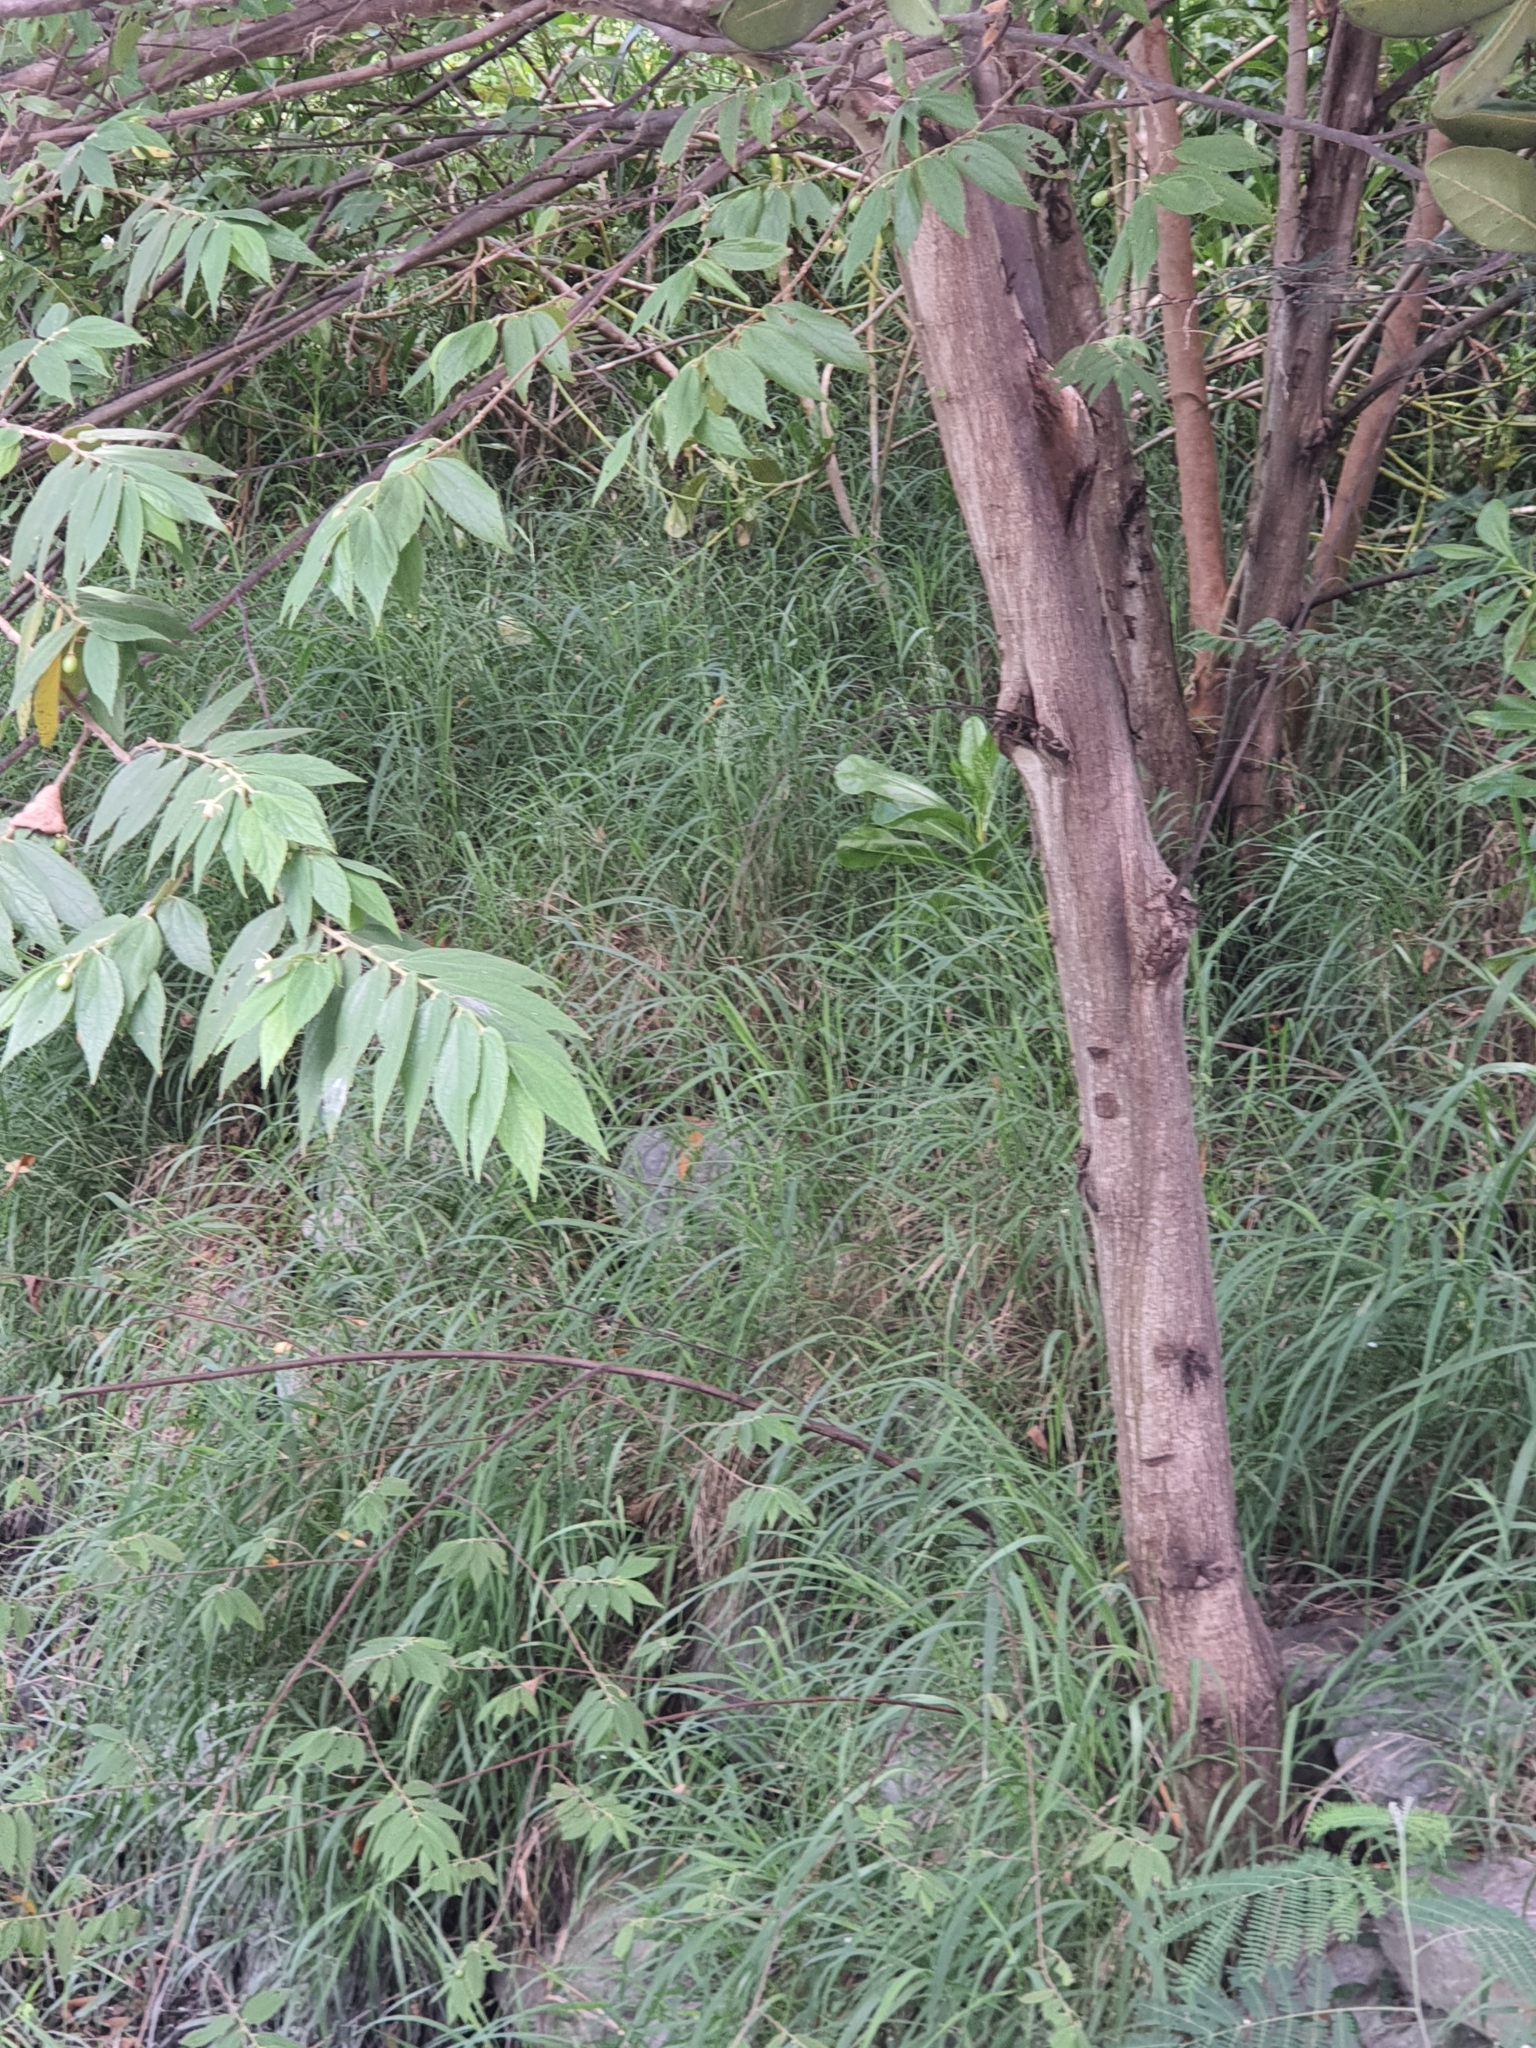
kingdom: Plantae
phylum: Tracheophyta
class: Magnoliopsida
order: Malvales
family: Muntingiaceae
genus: Muntingia
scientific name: Muntingia calabura
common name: Strawberrytree
